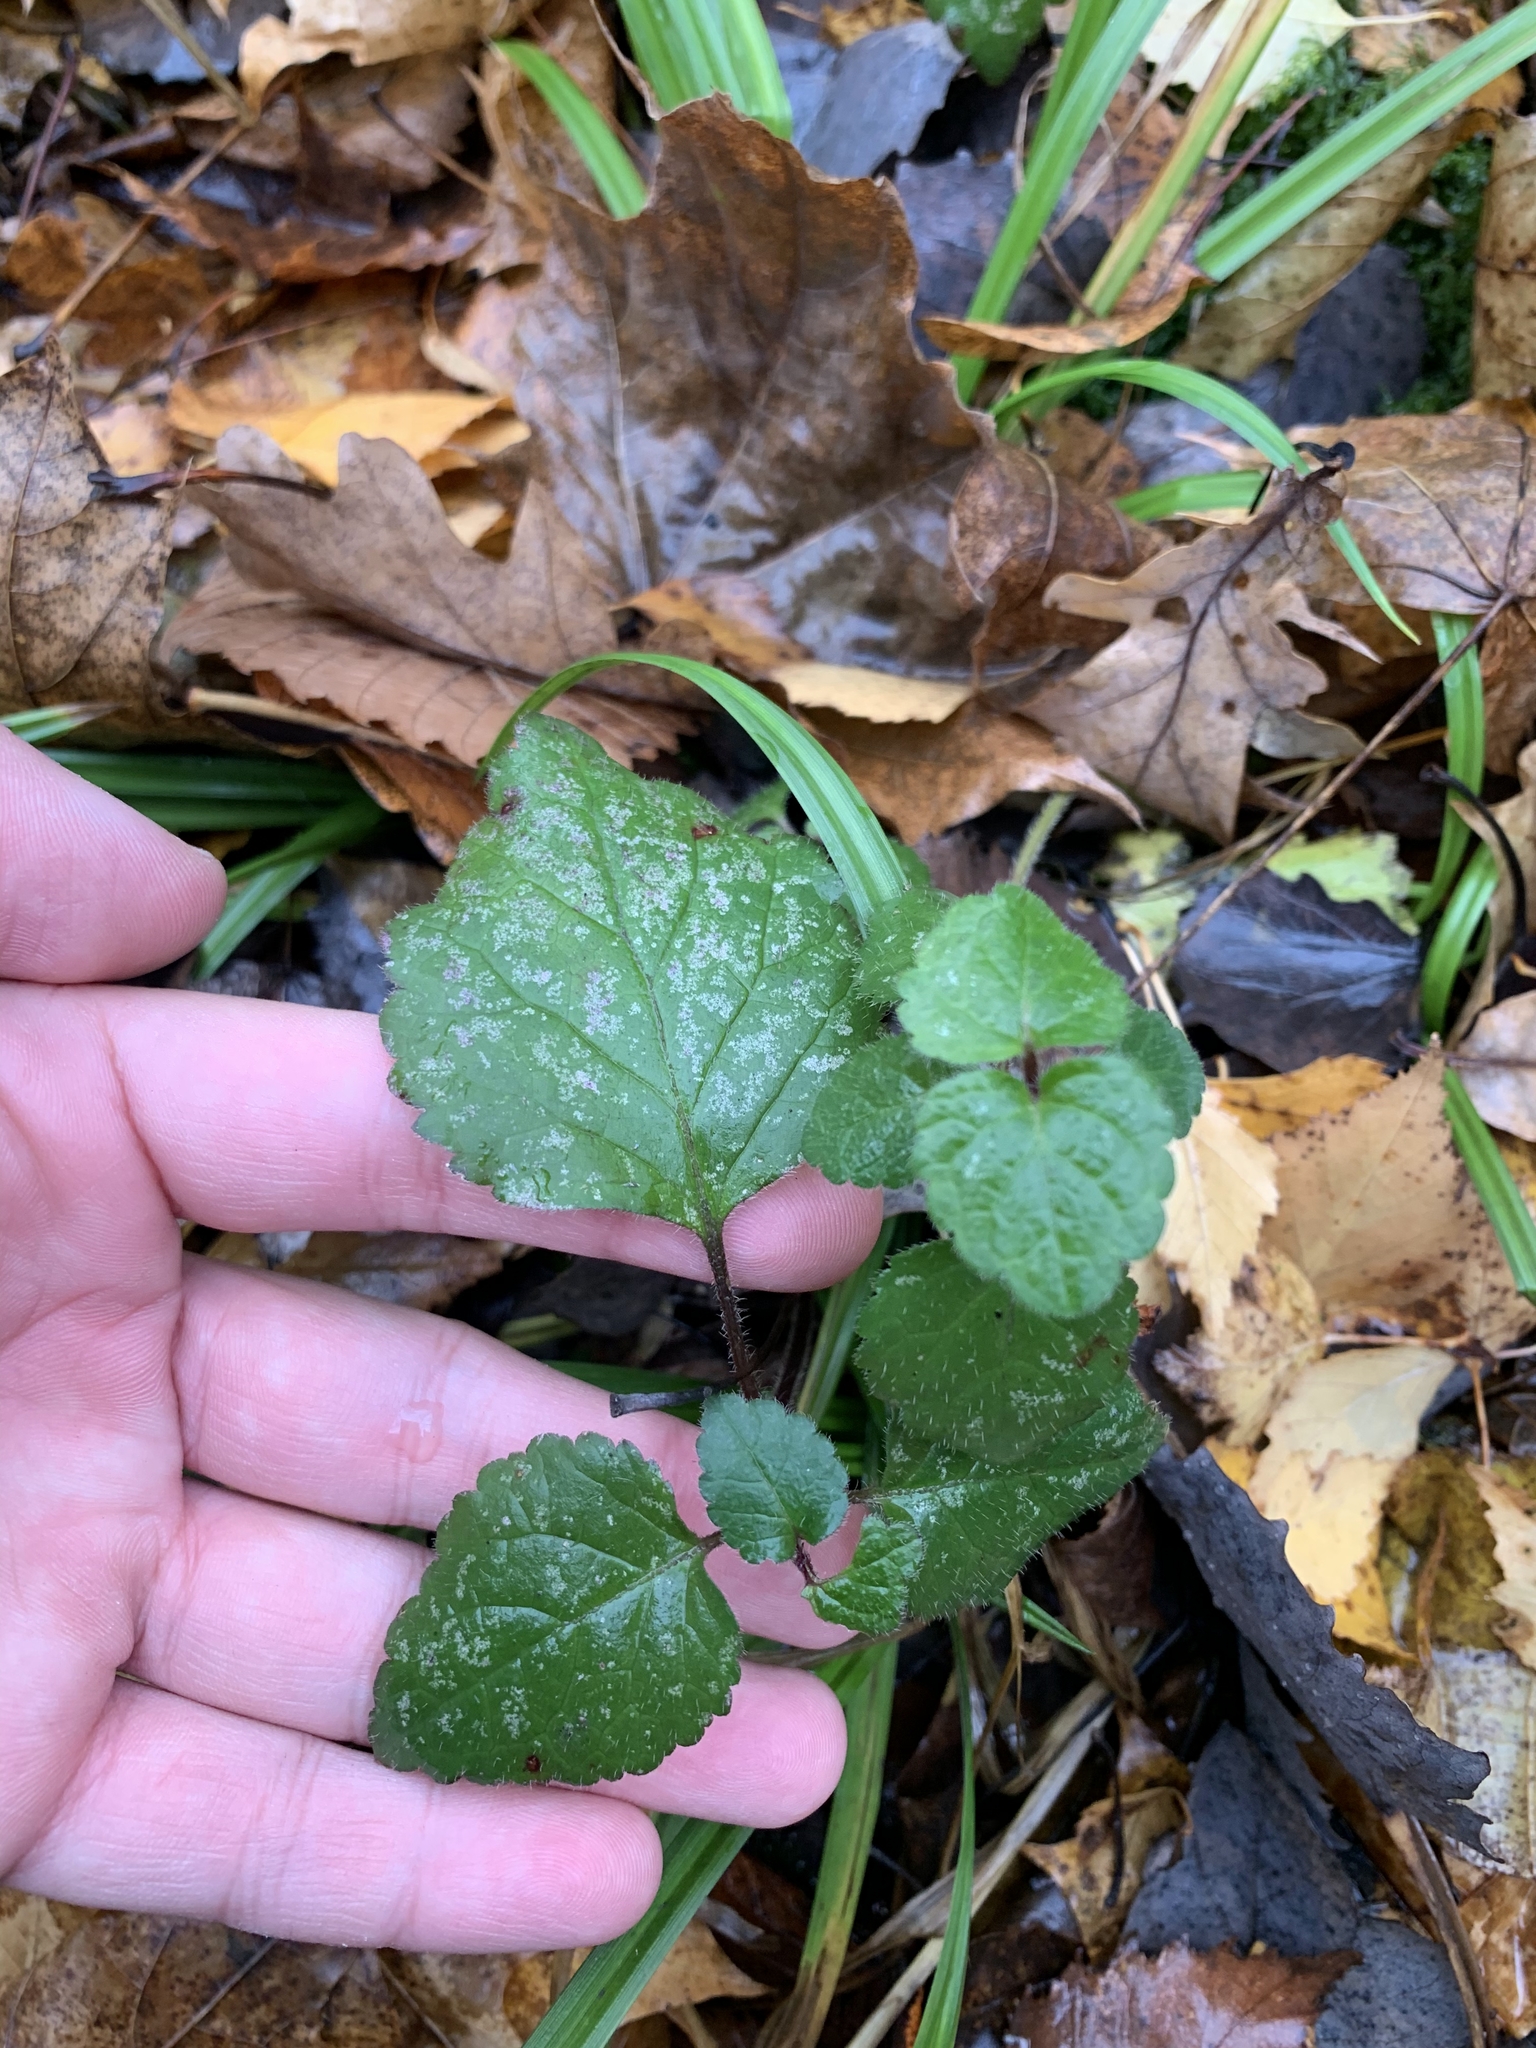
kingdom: Plantae
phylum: Tracheophyta
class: Magnoliopsida
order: Lamiales
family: Lamiaceae
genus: Lamium
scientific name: Lamium galeobdolon
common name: Yellow archangel
